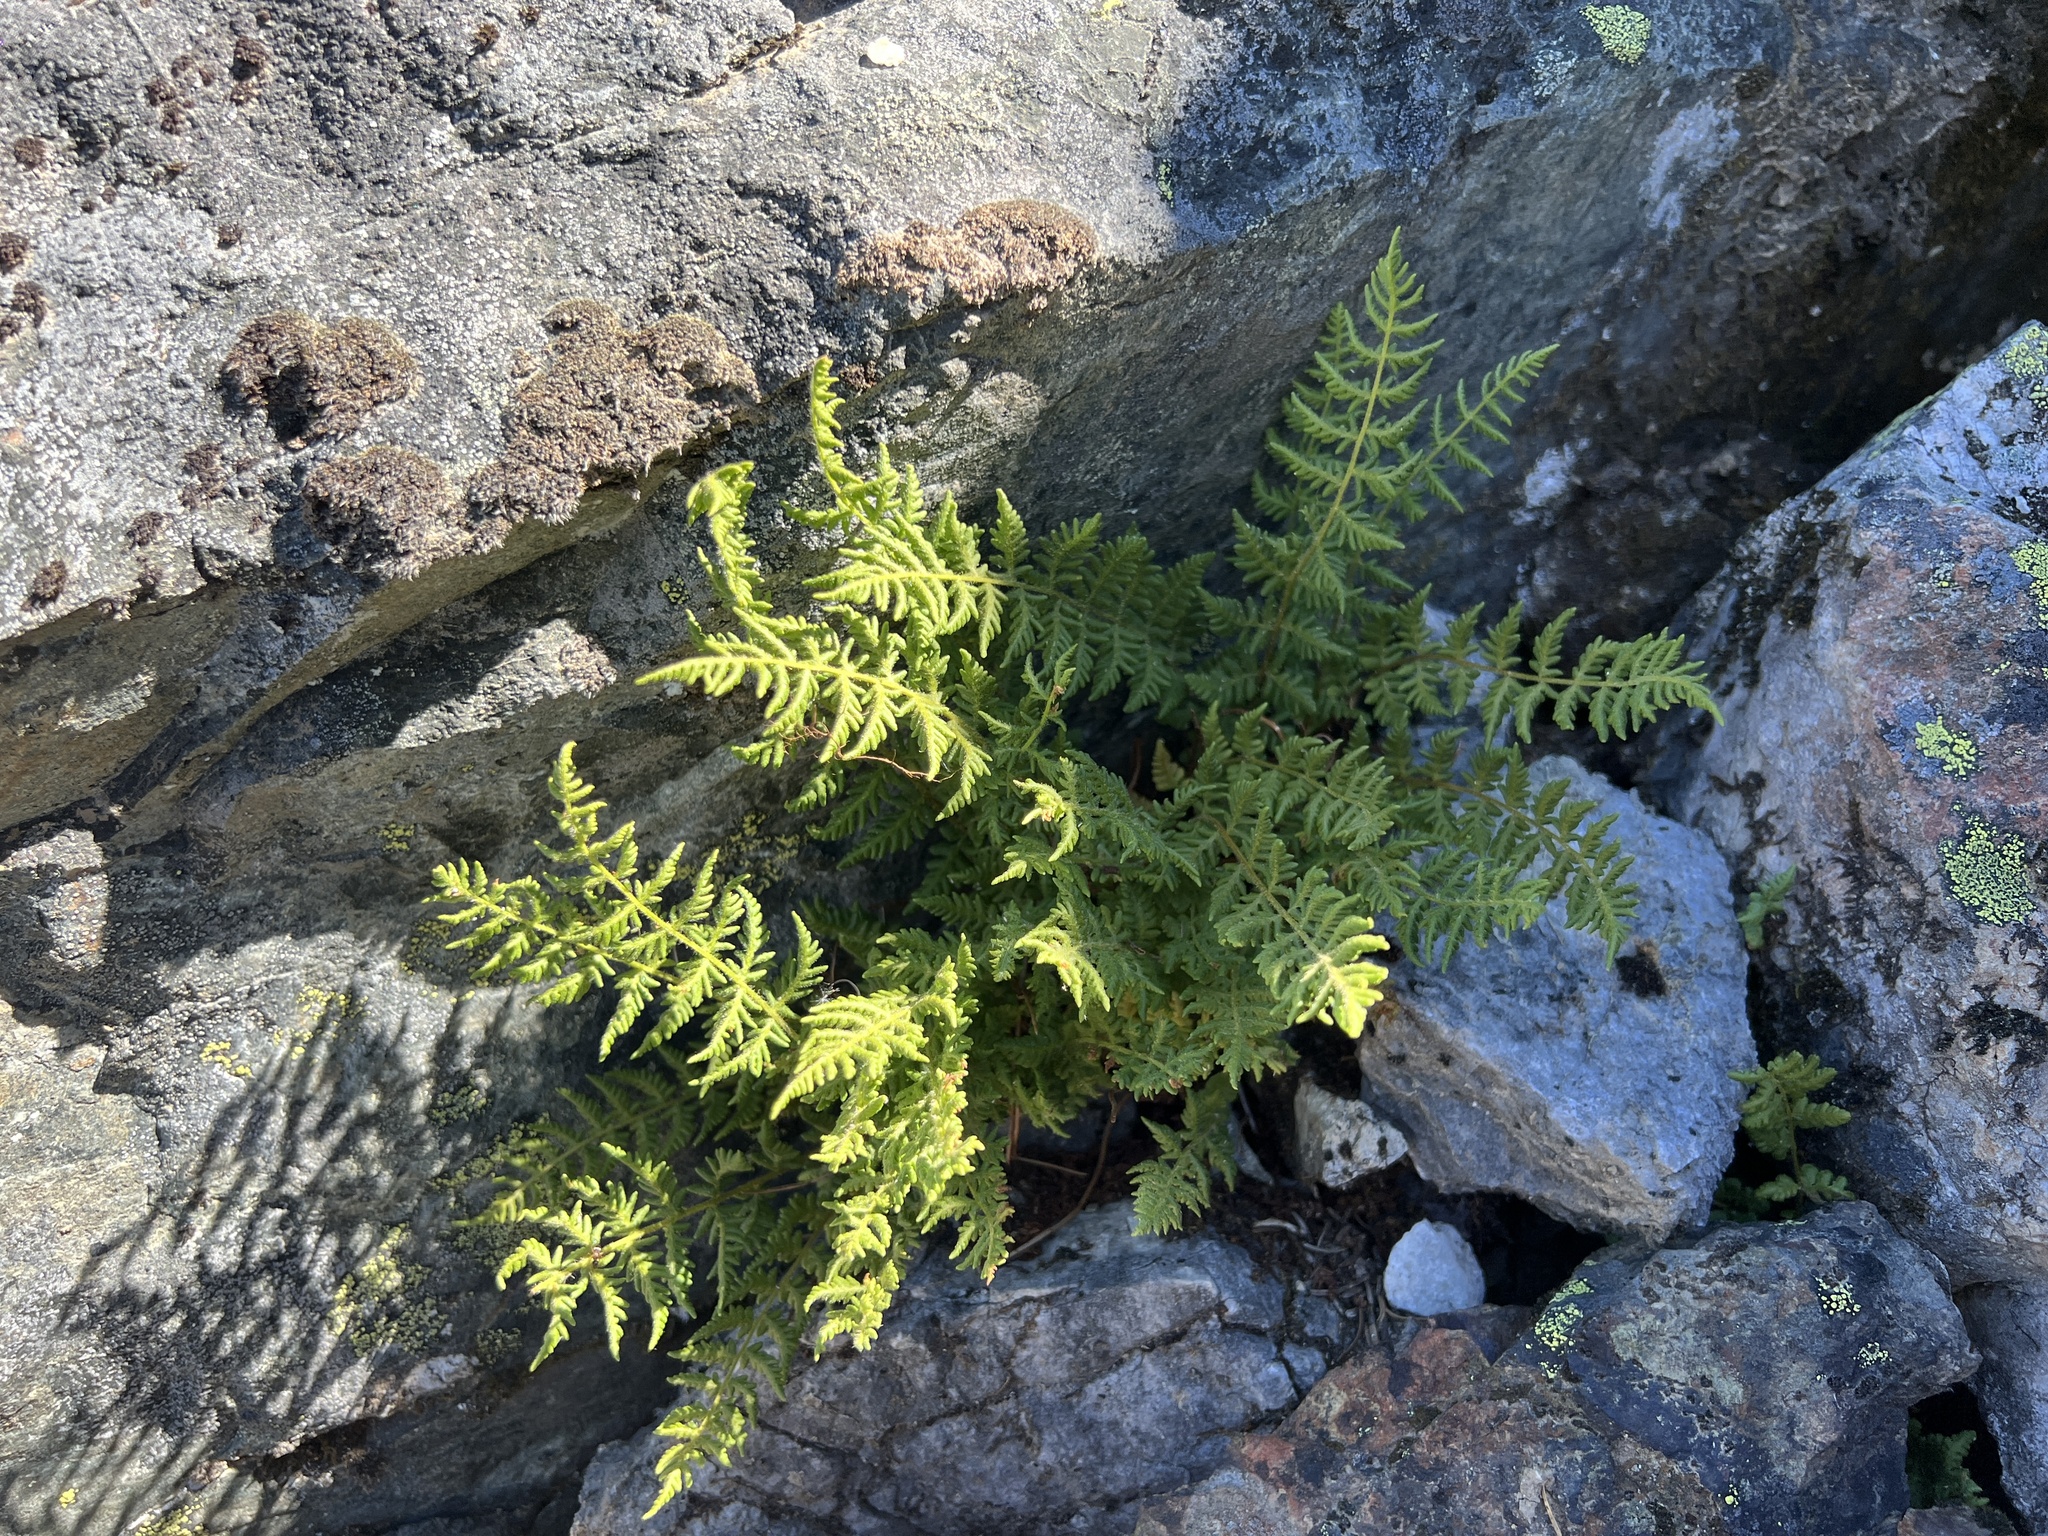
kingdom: Plantae
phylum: Tracheophyta
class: Polypodiopsida
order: Polypodiales
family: Woodsiaceae
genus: Physematium
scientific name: Physematium scopulinum
